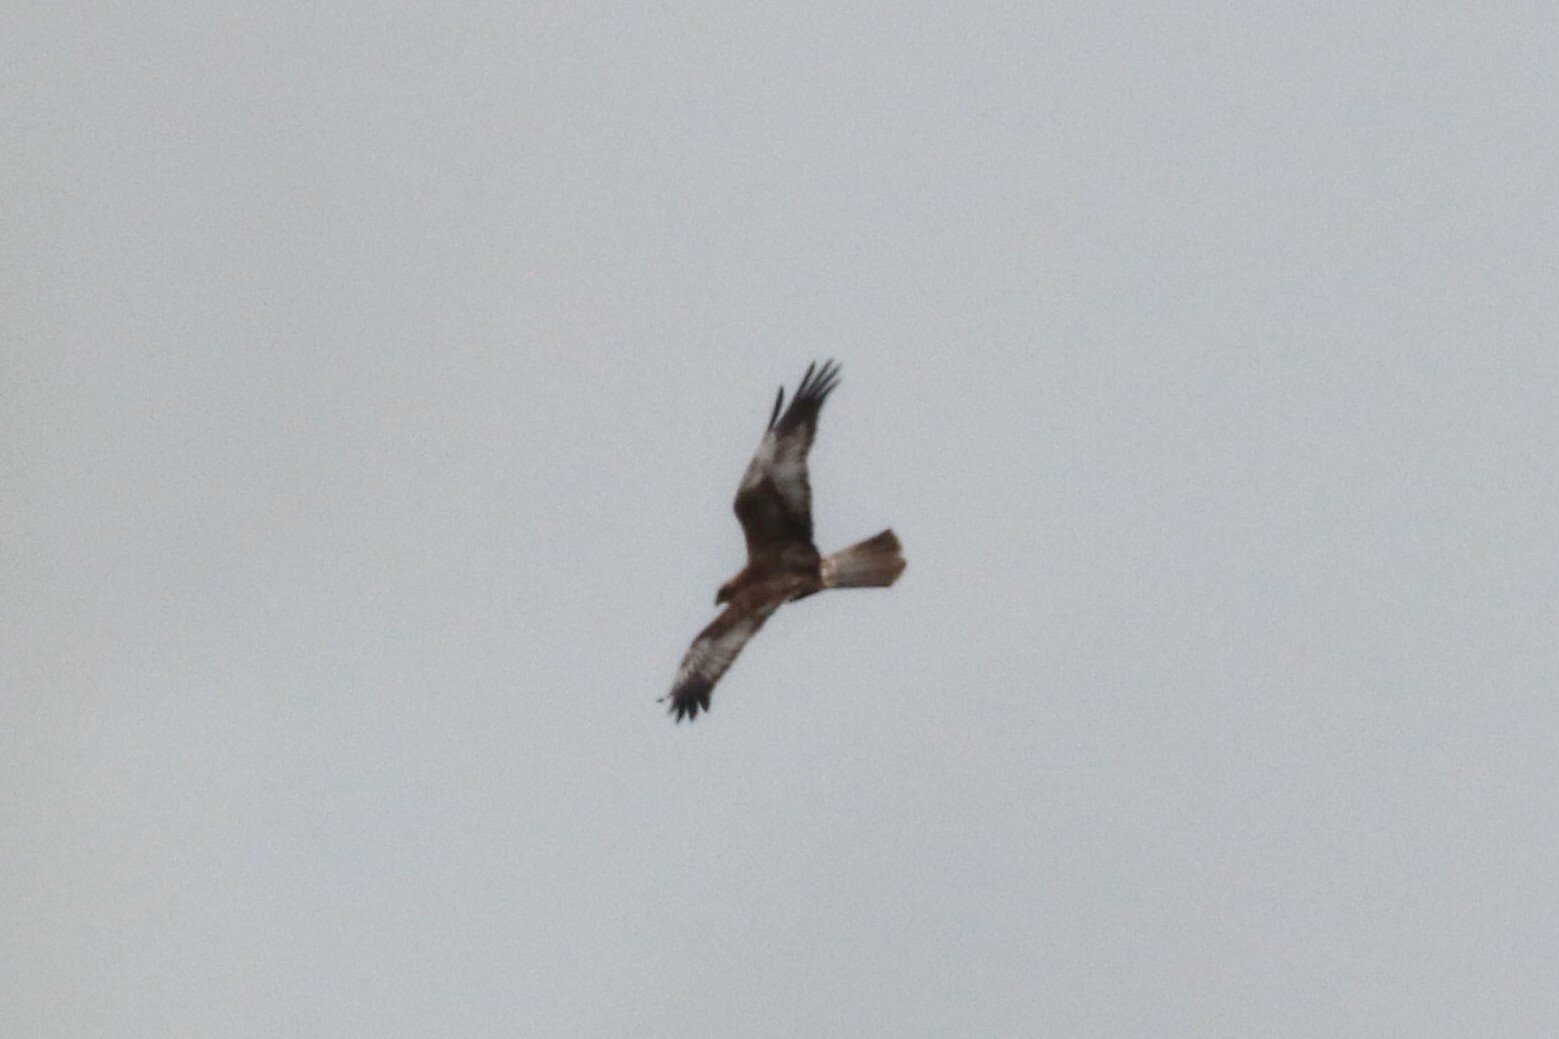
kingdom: Animalia
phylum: Chordata
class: Aves
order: Accipitriformes
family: Accipitridae
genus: Circus
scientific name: Circus aeruginosus
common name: Western marsh harrier
